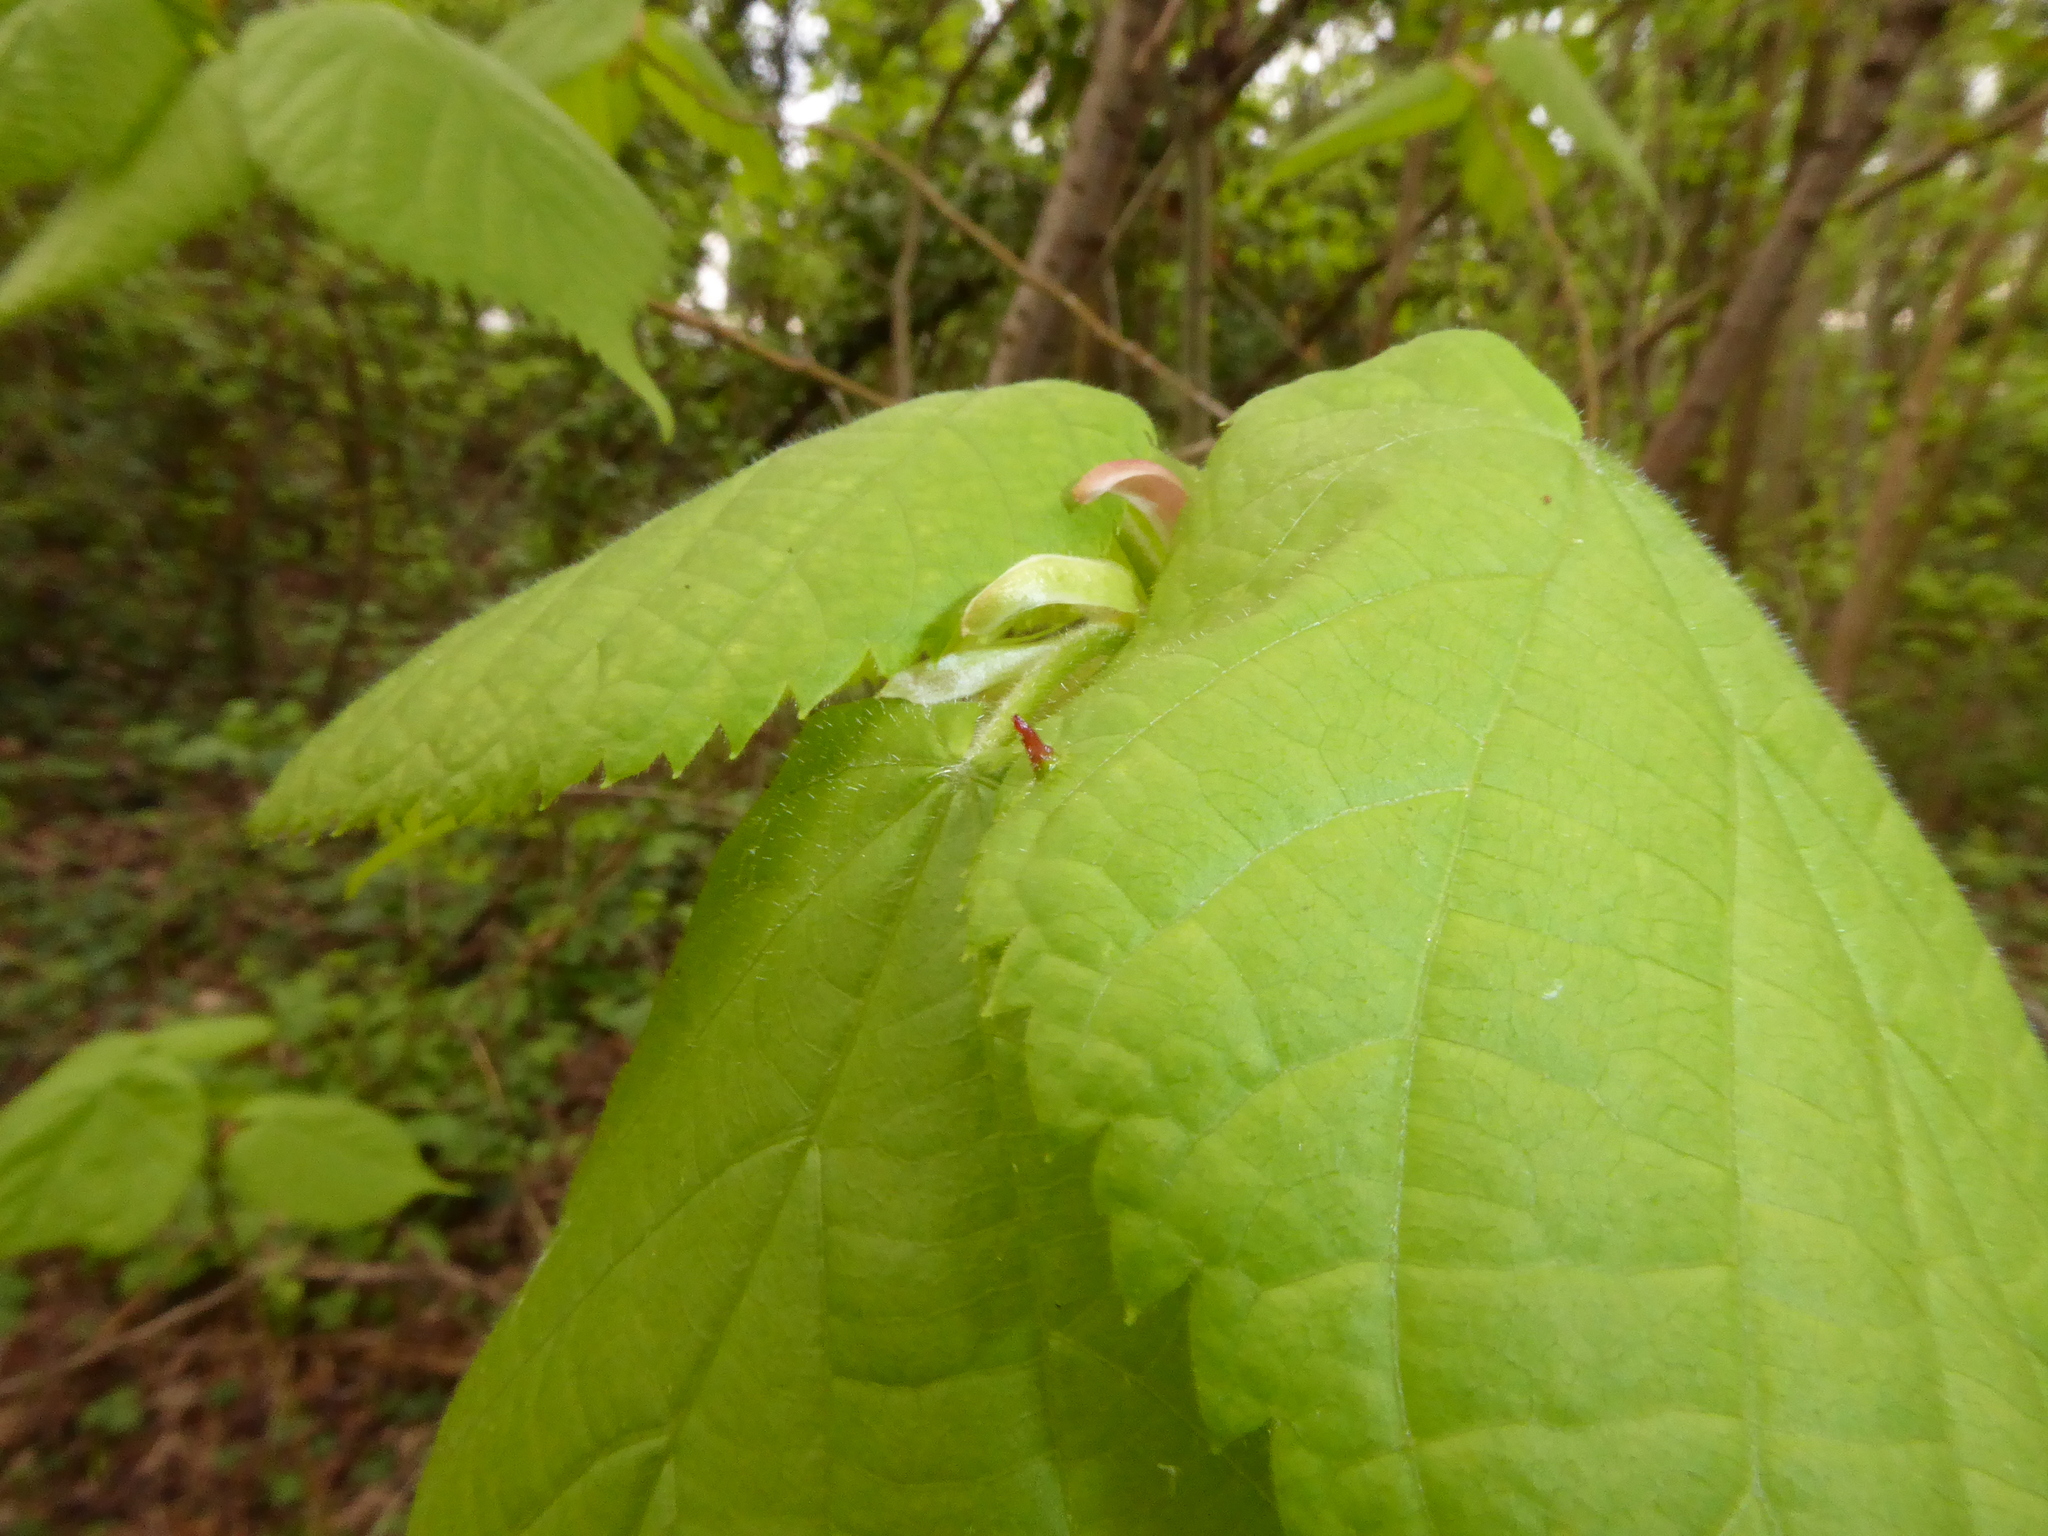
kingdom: Animalia
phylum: Arthropoda
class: Arachnida
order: Trombidiformes
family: Eriophyidae
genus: Eriophyes
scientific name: Eriophyes tiliae
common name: Red nail gall mite
